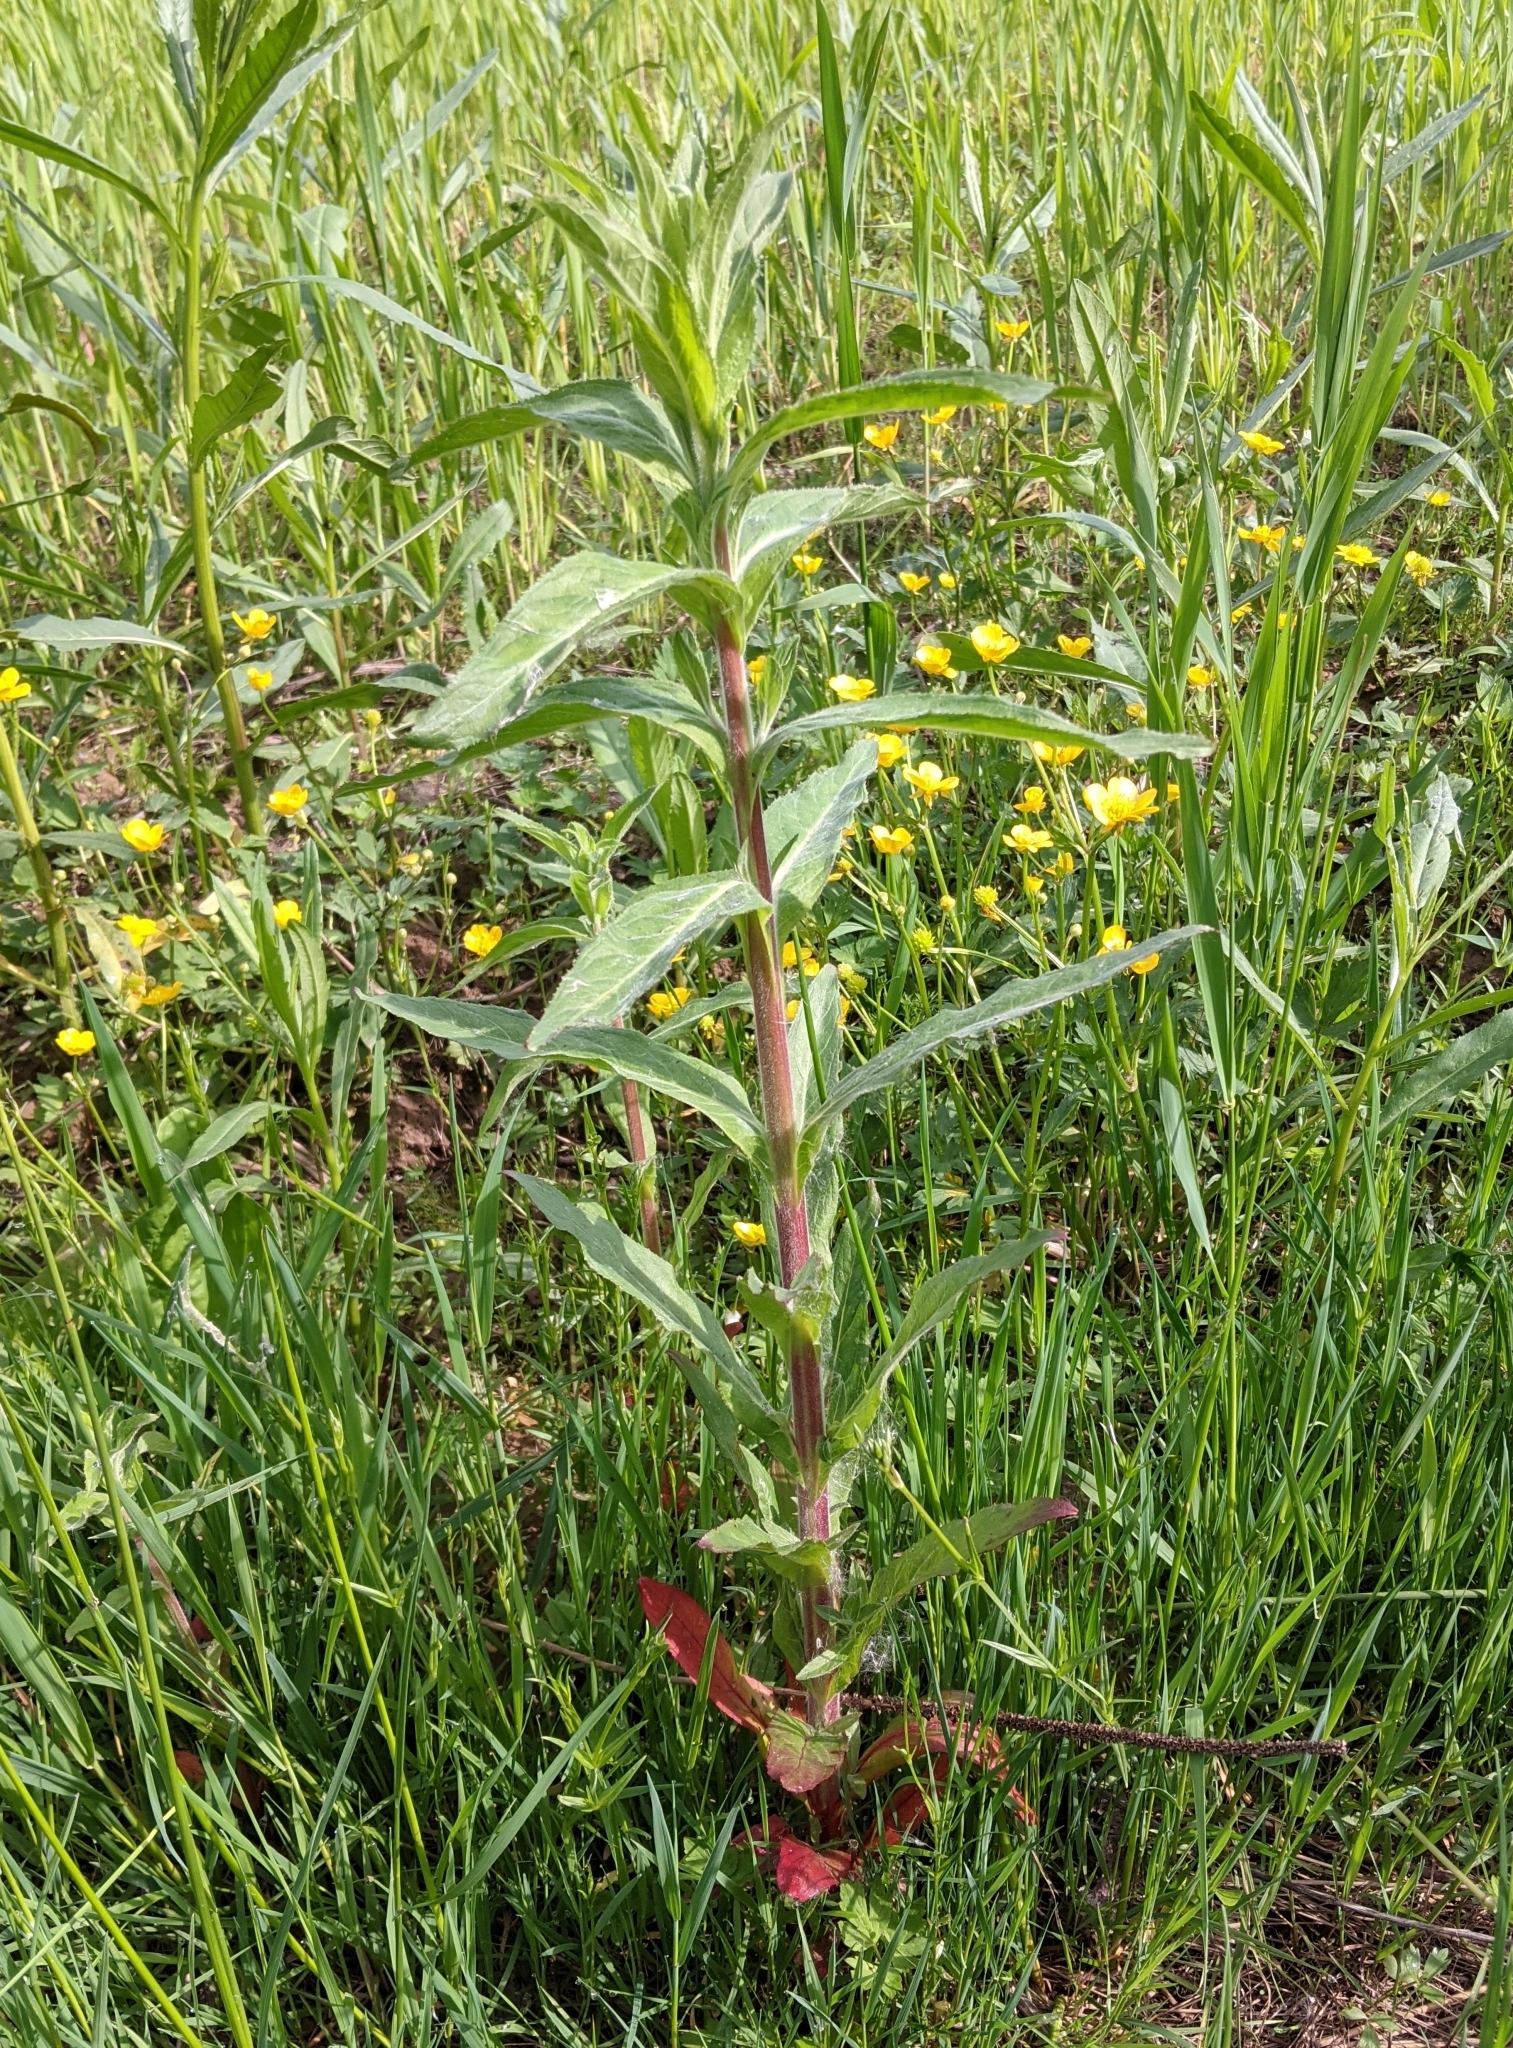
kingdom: Plantae
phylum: Tracheophyta
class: Magnoliopsida
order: Myrtales
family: Onagraceae
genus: Epilobium
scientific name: Epilobium hirsutum
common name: Great willowherb
